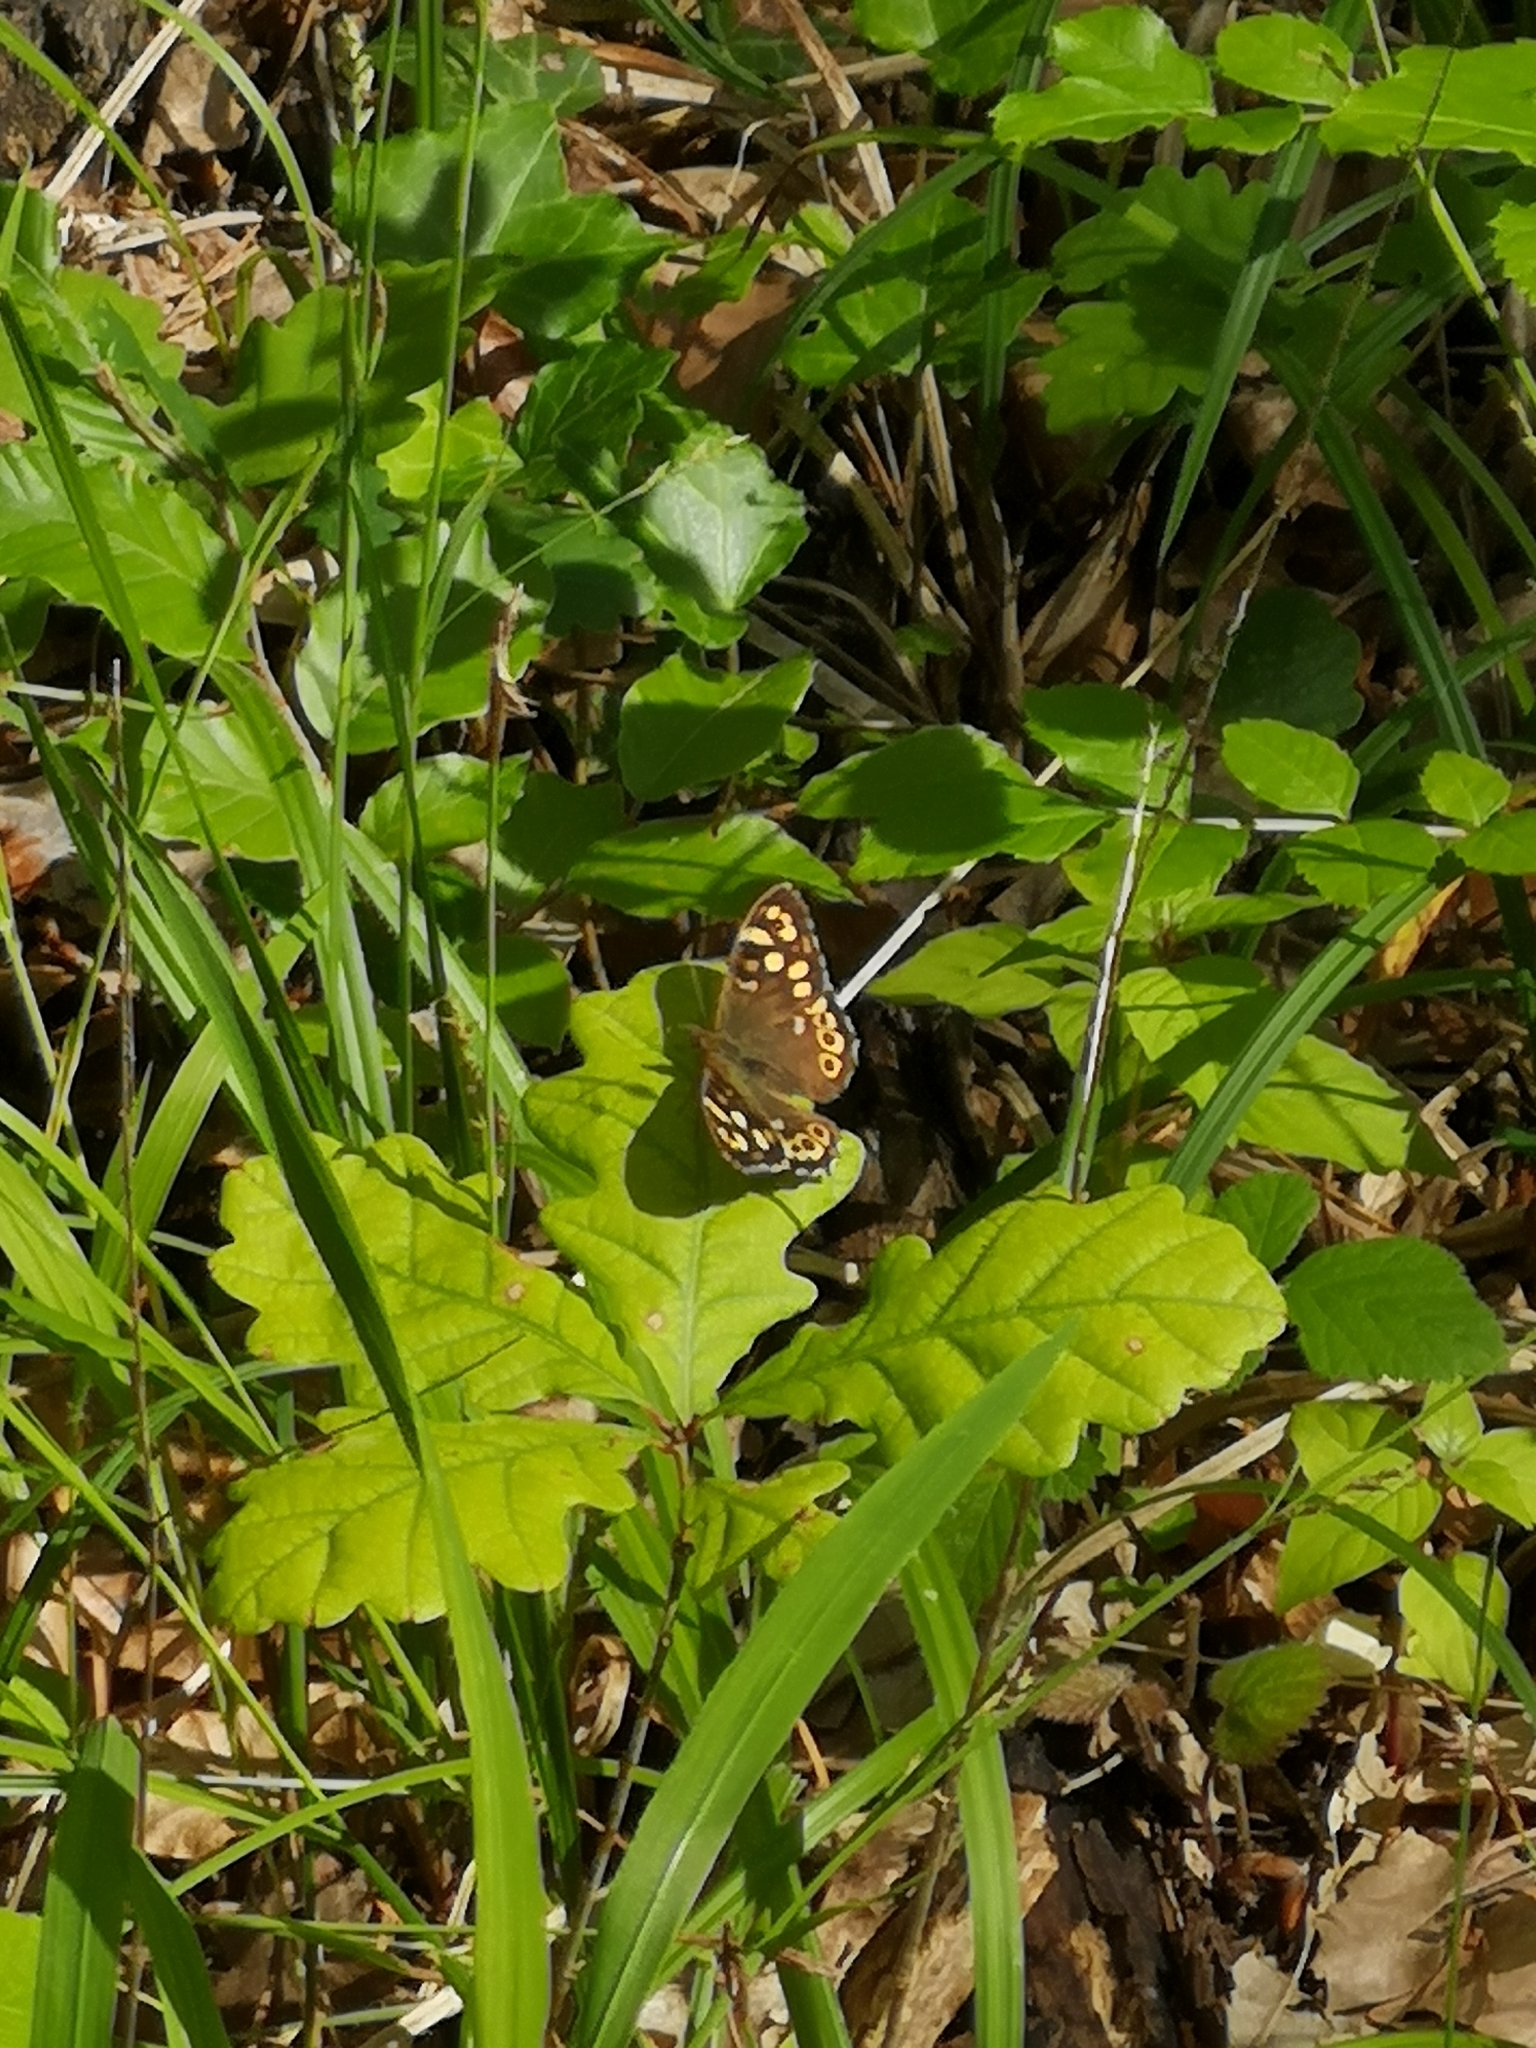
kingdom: Animalia
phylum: Arthropoda
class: Insecta
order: Lepidoptera
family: Nymphalidae
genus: Pararge
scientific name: Pararge aegeria
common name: Speckled wood
